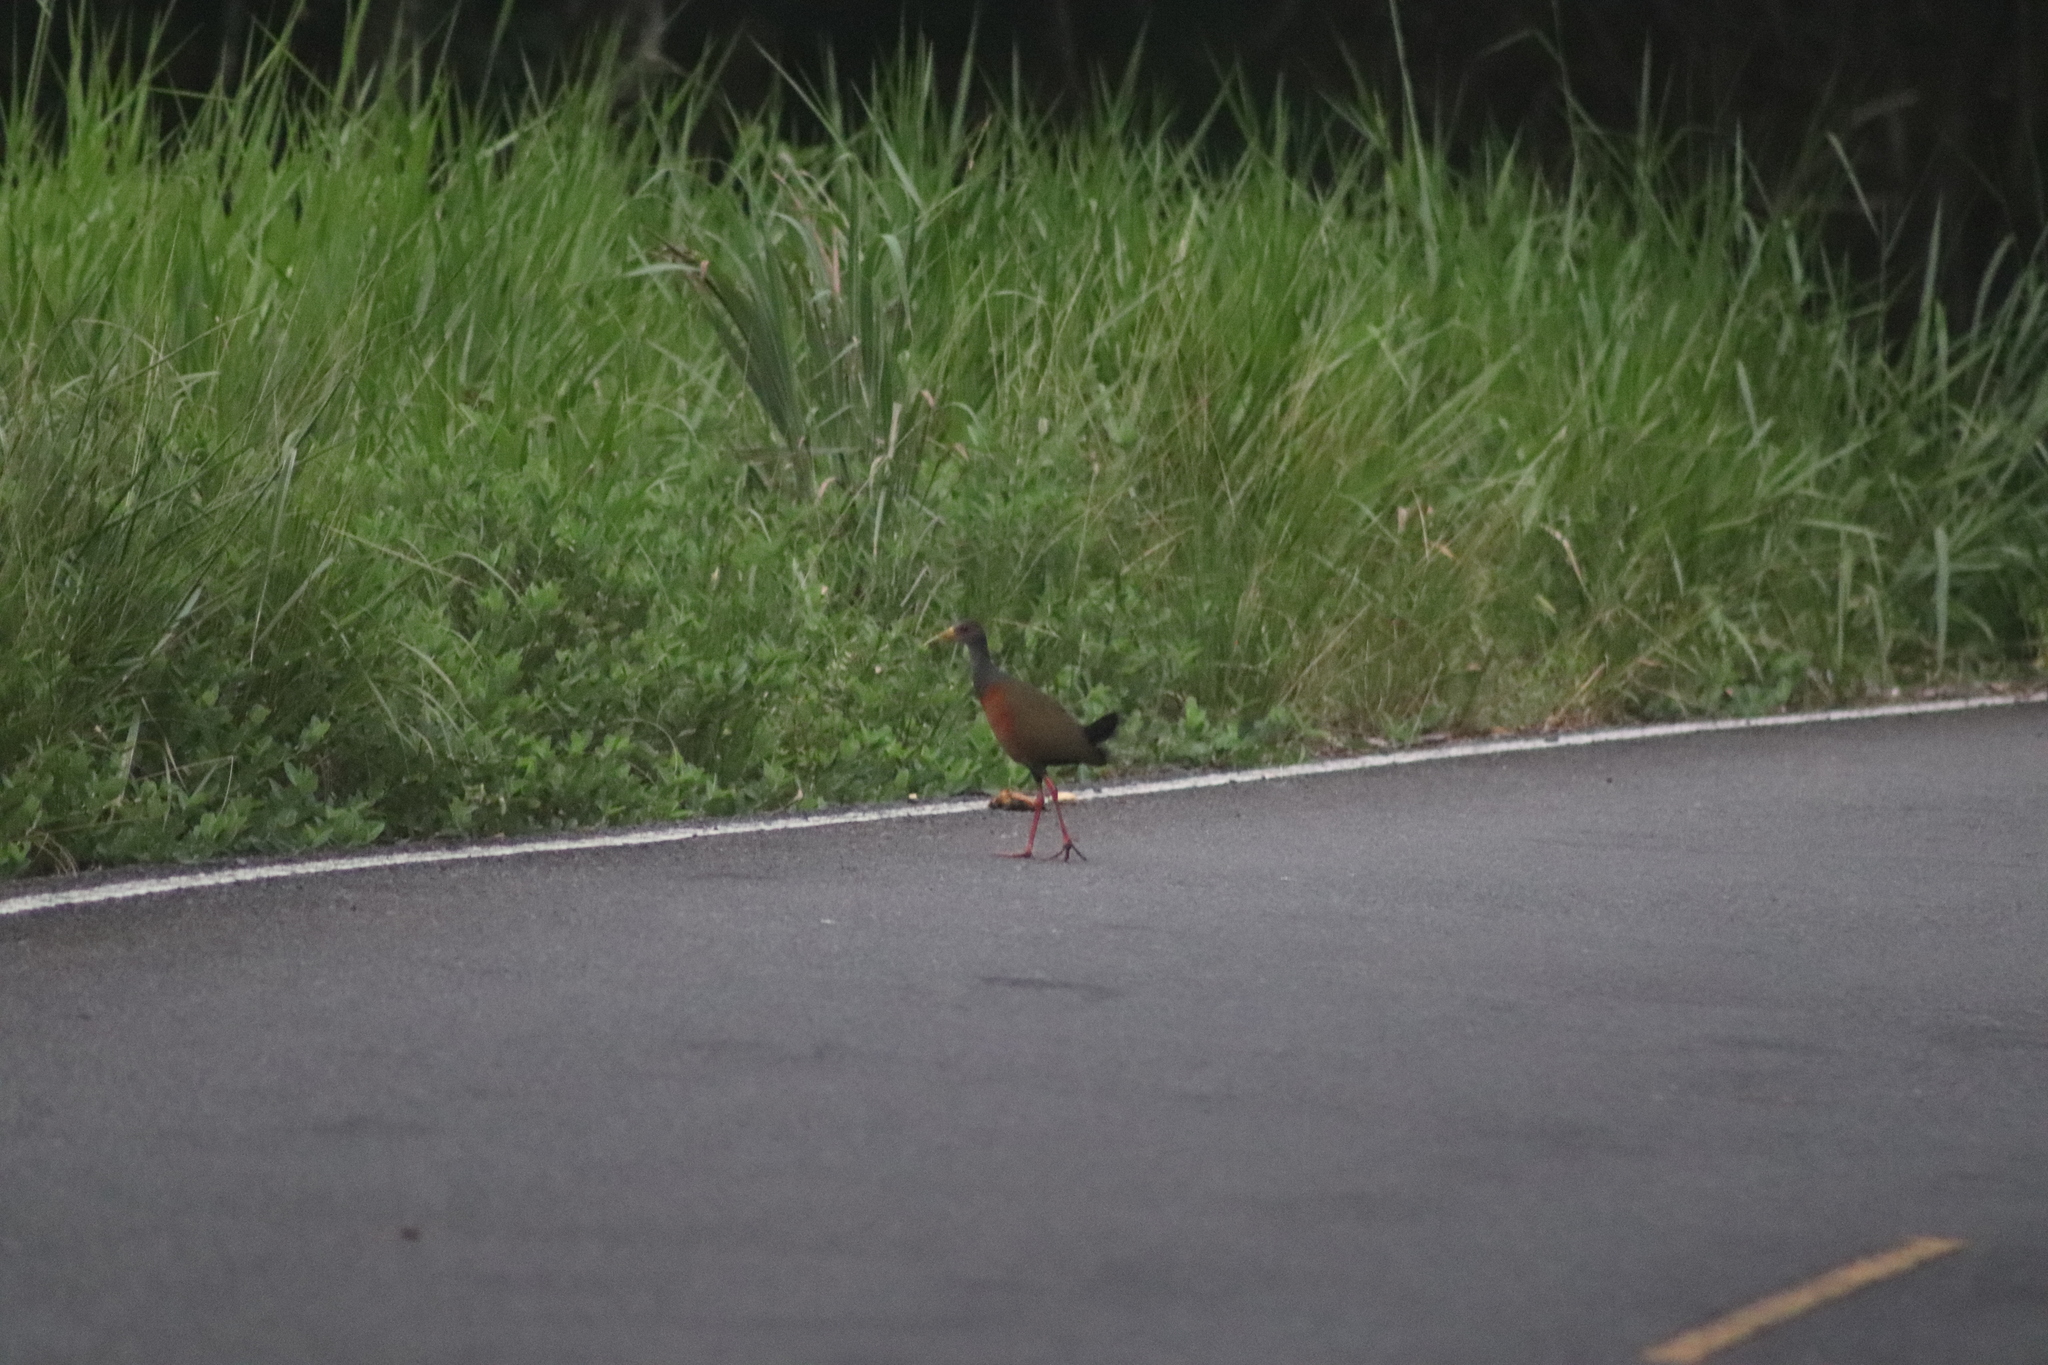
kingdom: Animalia
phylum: Chordata
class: Aves
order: Gruiformes
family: Rallidae
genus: Aramides
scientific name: Aramides cajanea
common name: Gray-necked wood-rail
